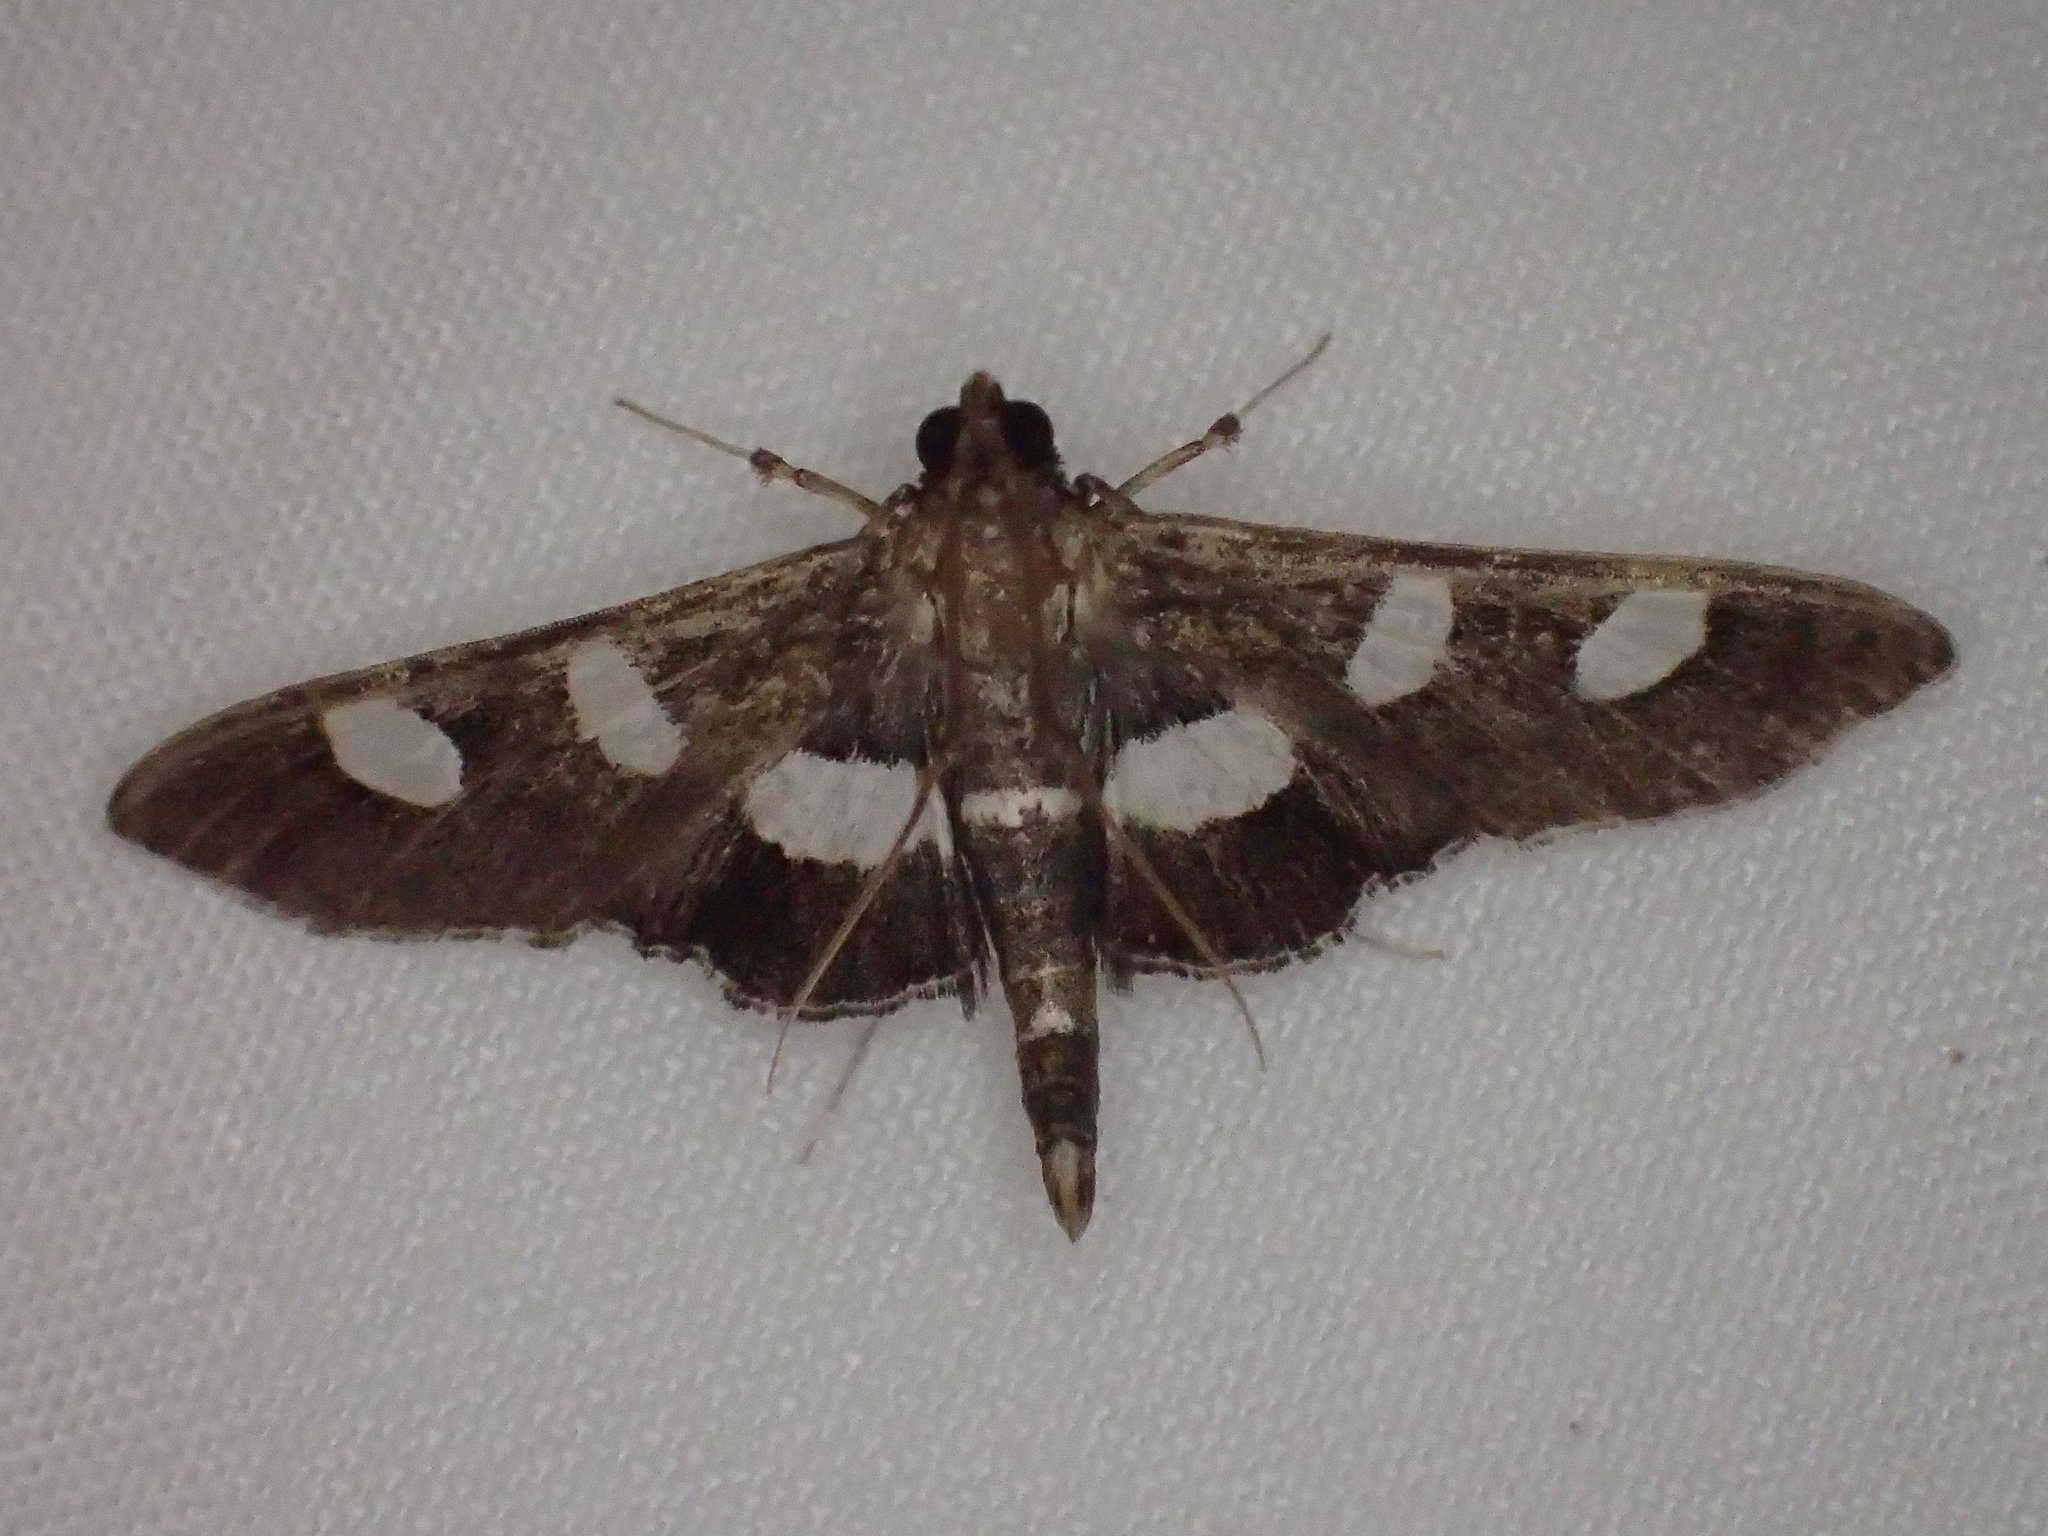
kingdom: Animalia
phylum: Arthropoda
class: Insecta
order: Lepidoptera
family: Crambidae
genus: Desmia
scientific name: Desmia
